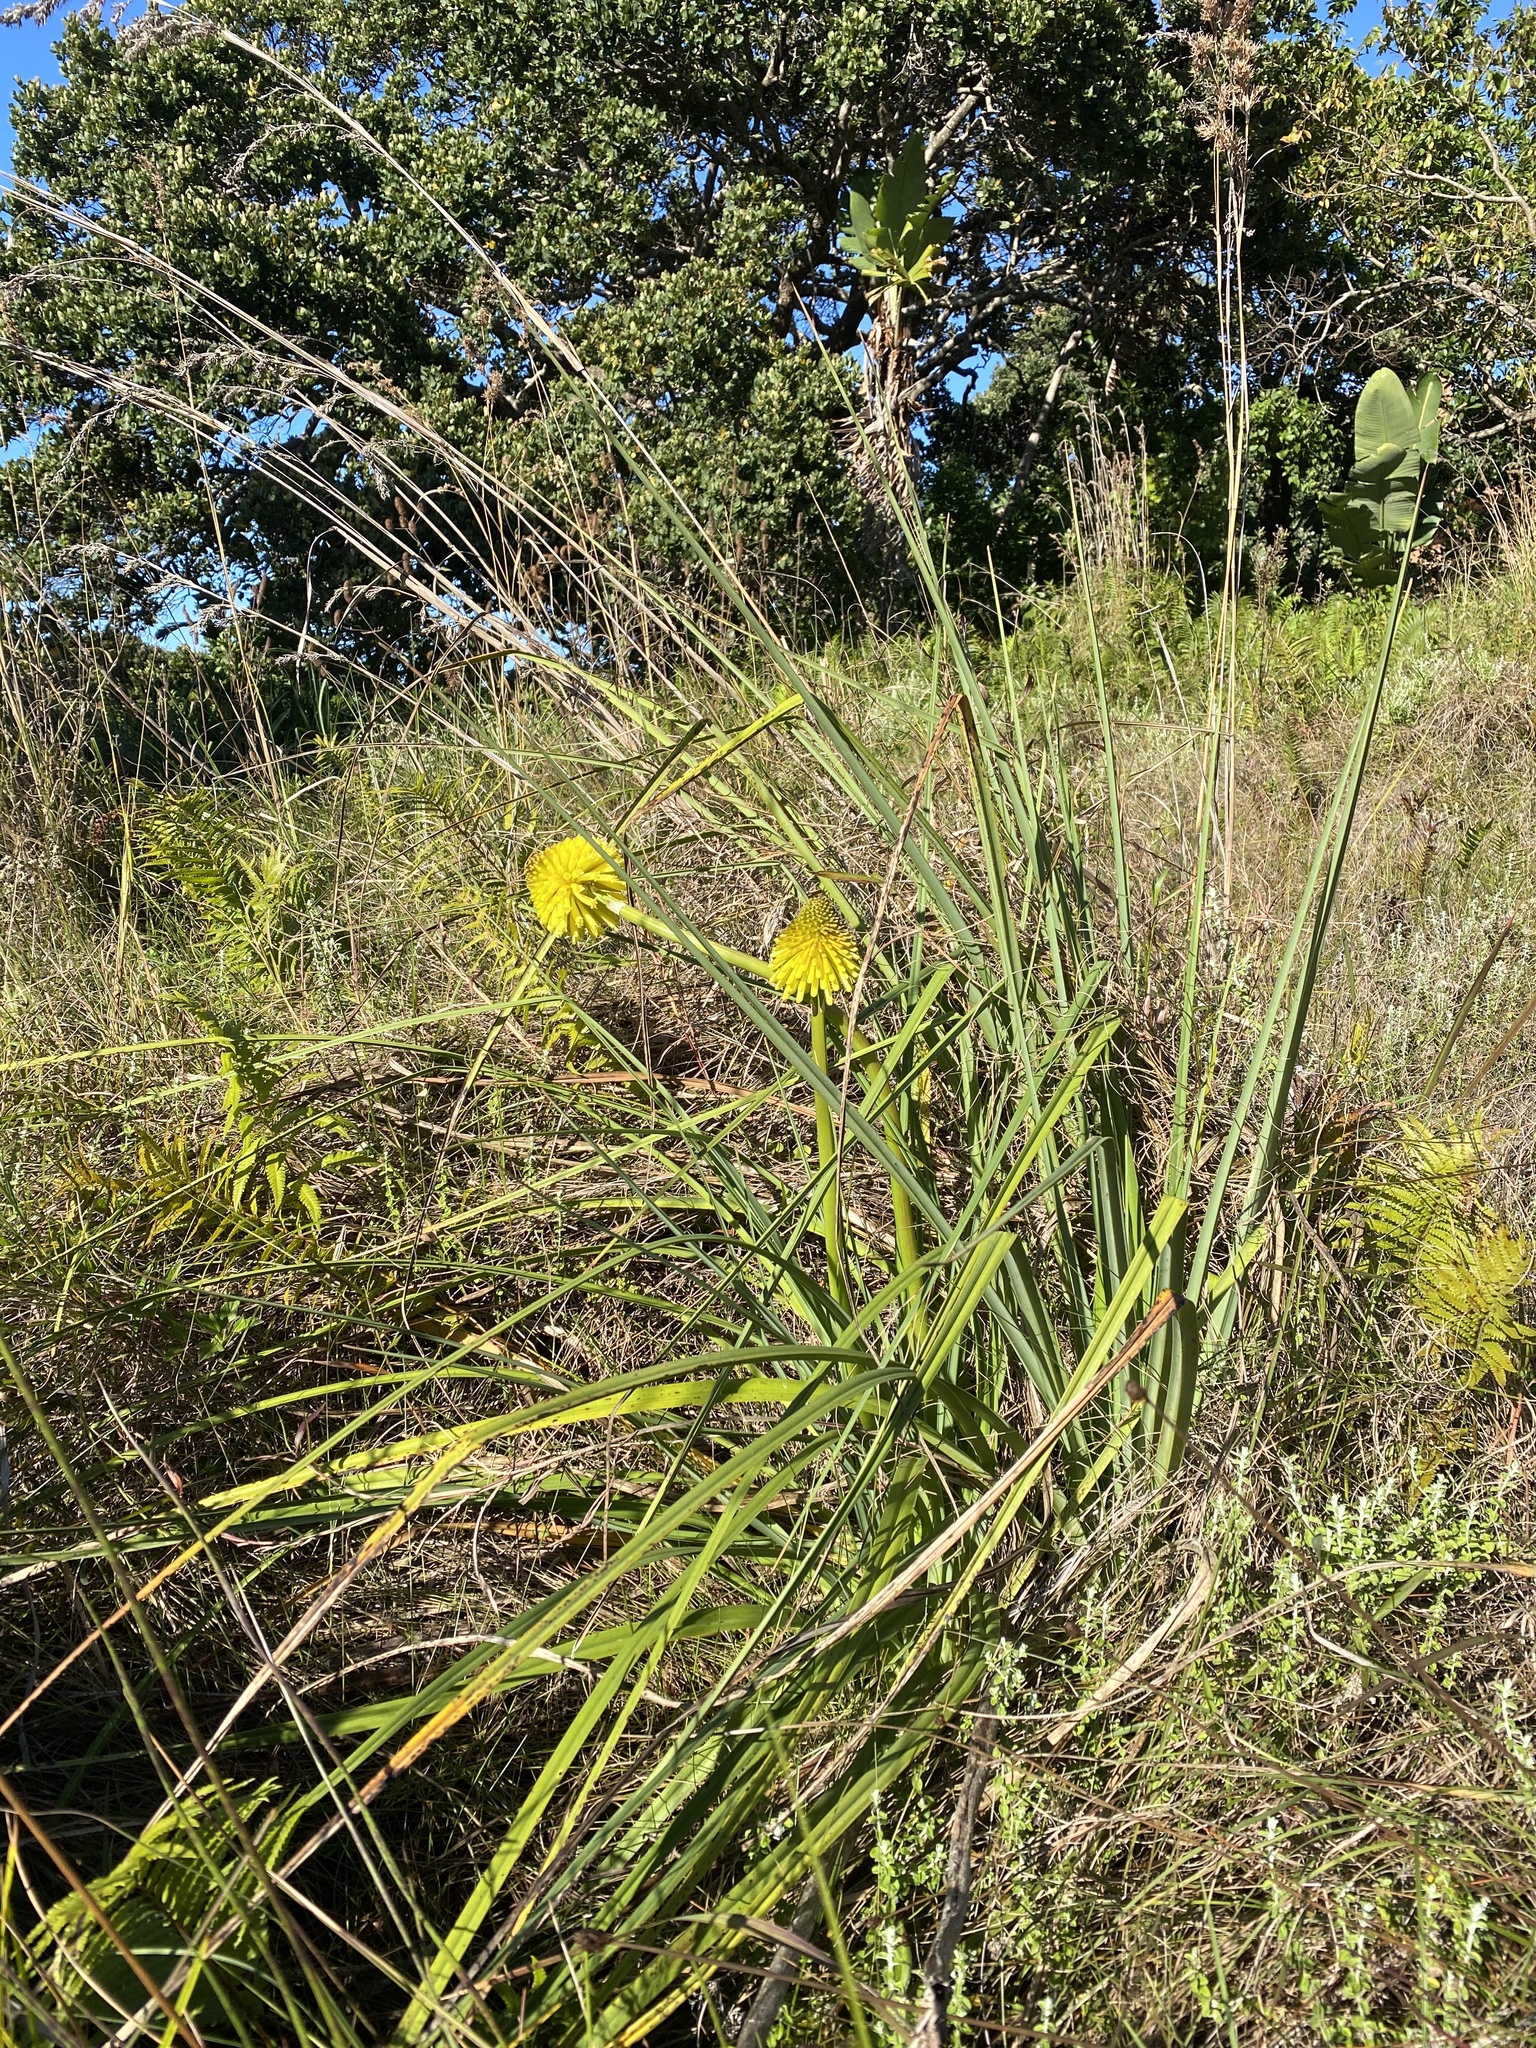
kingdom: Plantae
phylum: Tracheophyta
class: Liliopsida
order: Asparagales
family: Asphodelaceae
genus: Kniphofia
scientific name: Kniphofia rooperi
